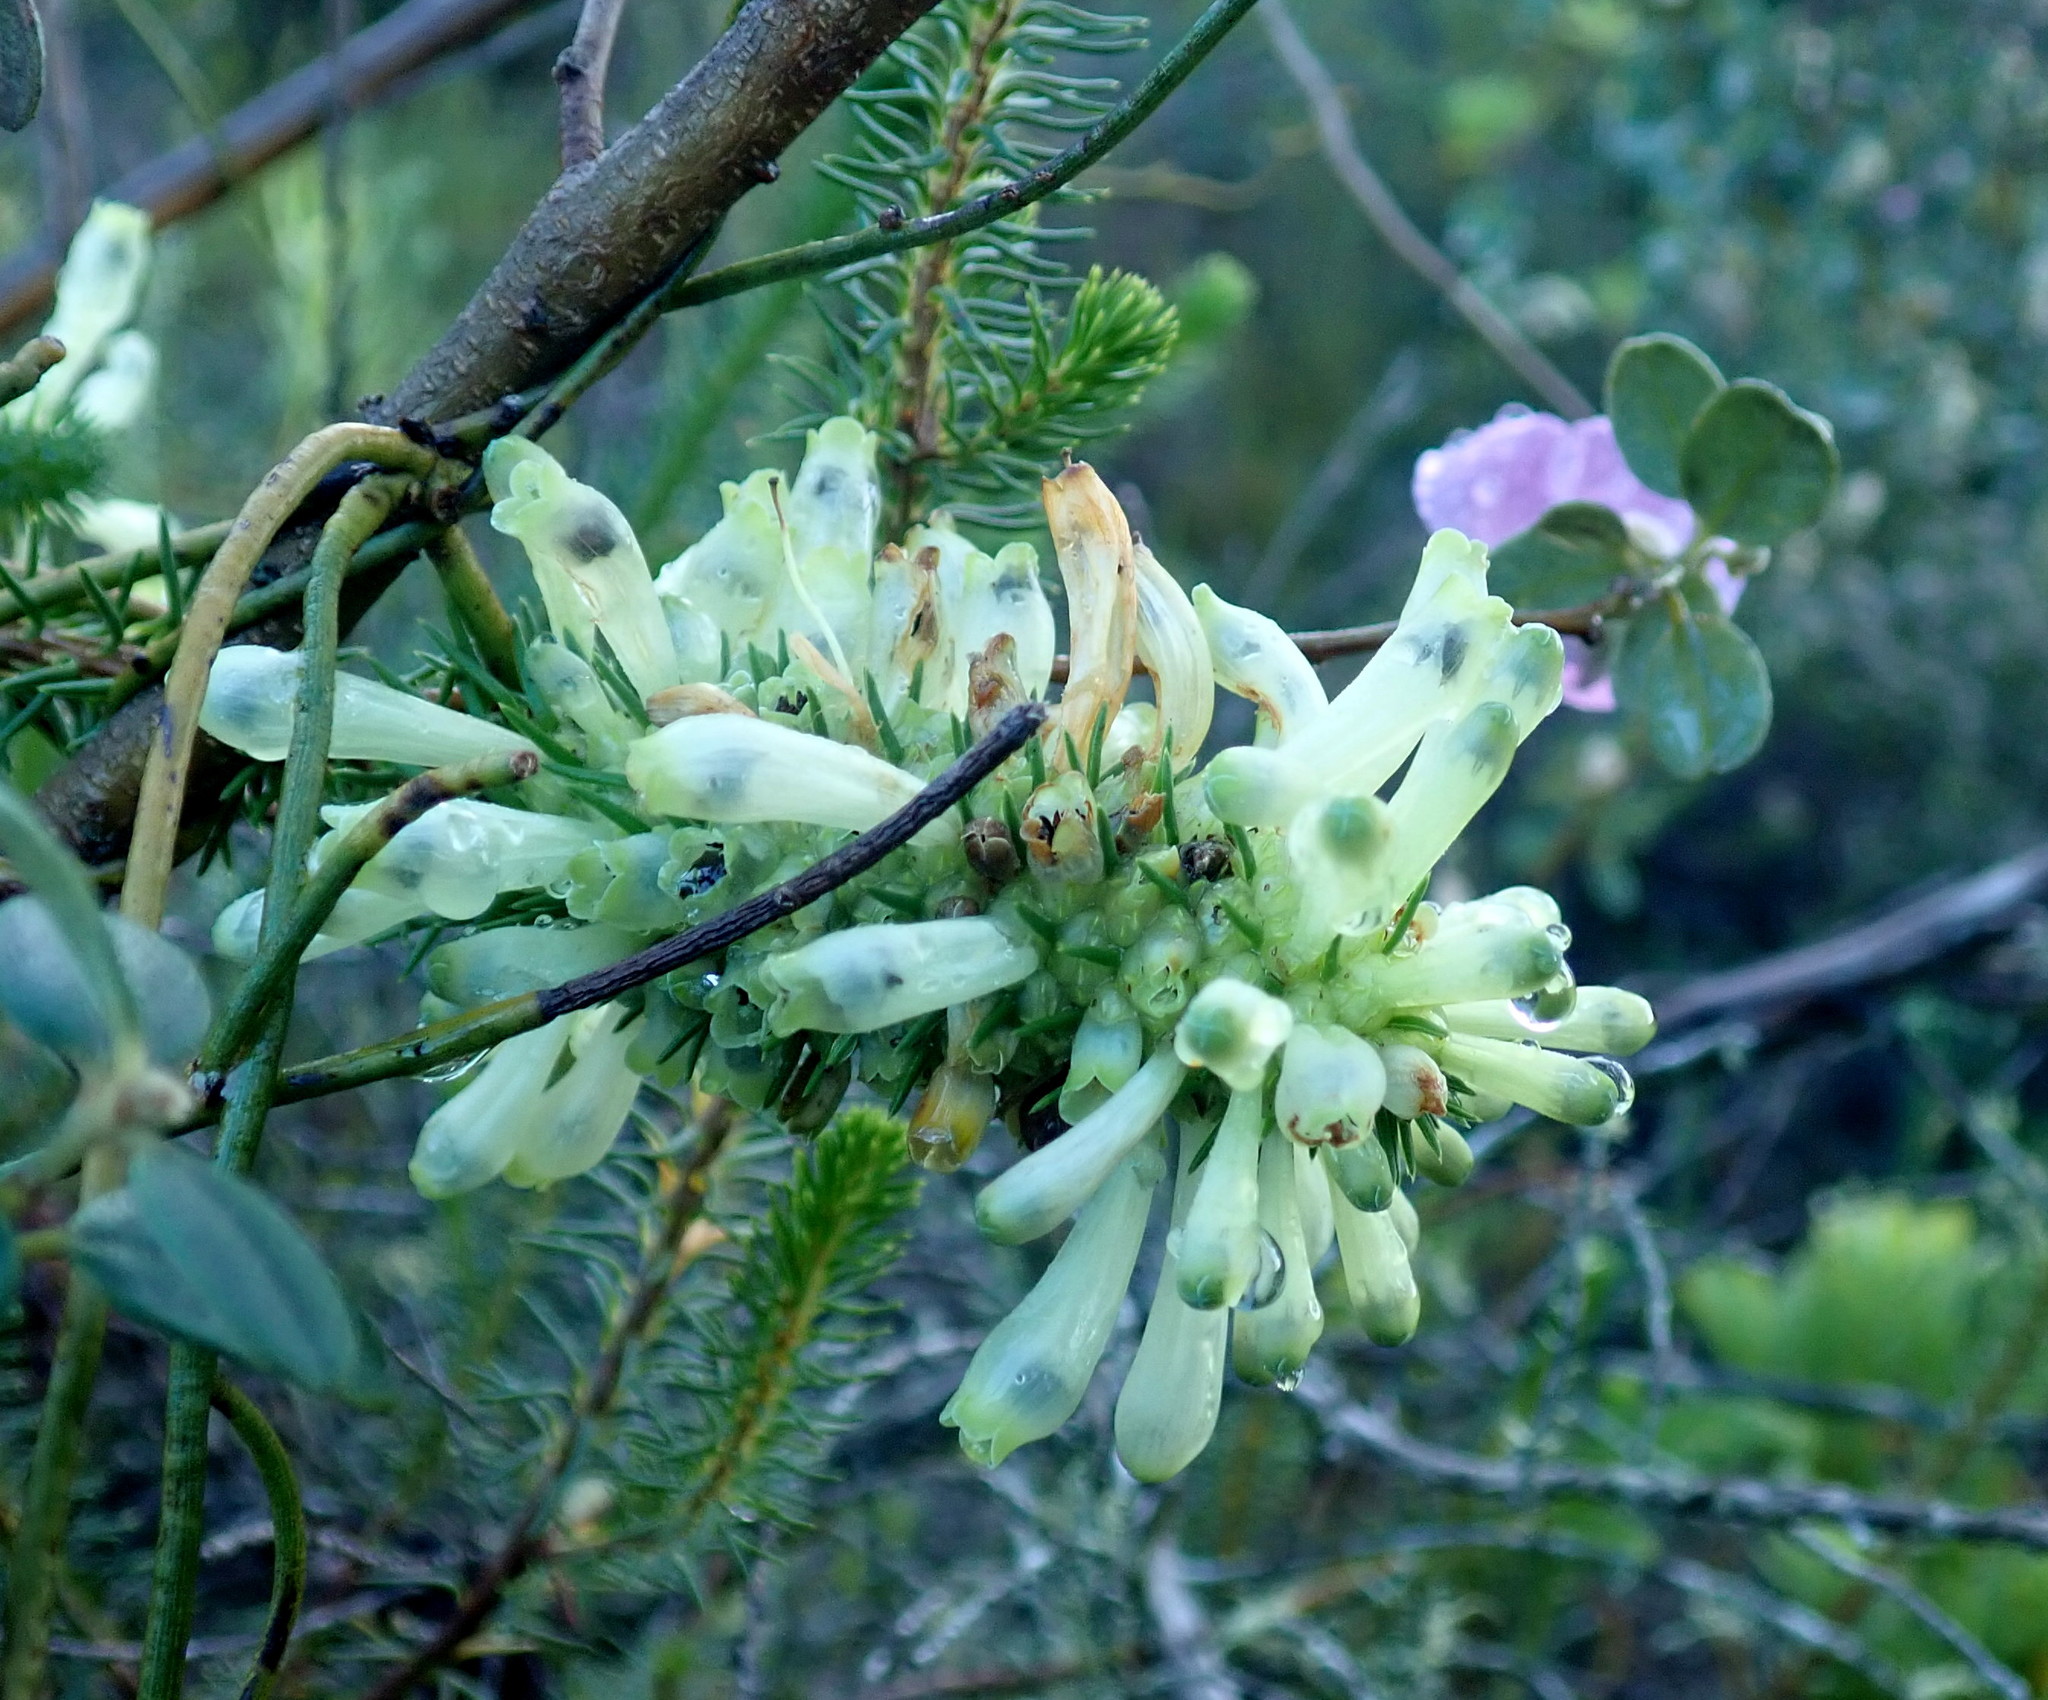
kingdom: Plantae
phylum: Tracheophyta
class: Magnoliopsida
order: Ericales
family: Ericaceae
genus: Erica
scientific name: Erica sessiliflora
